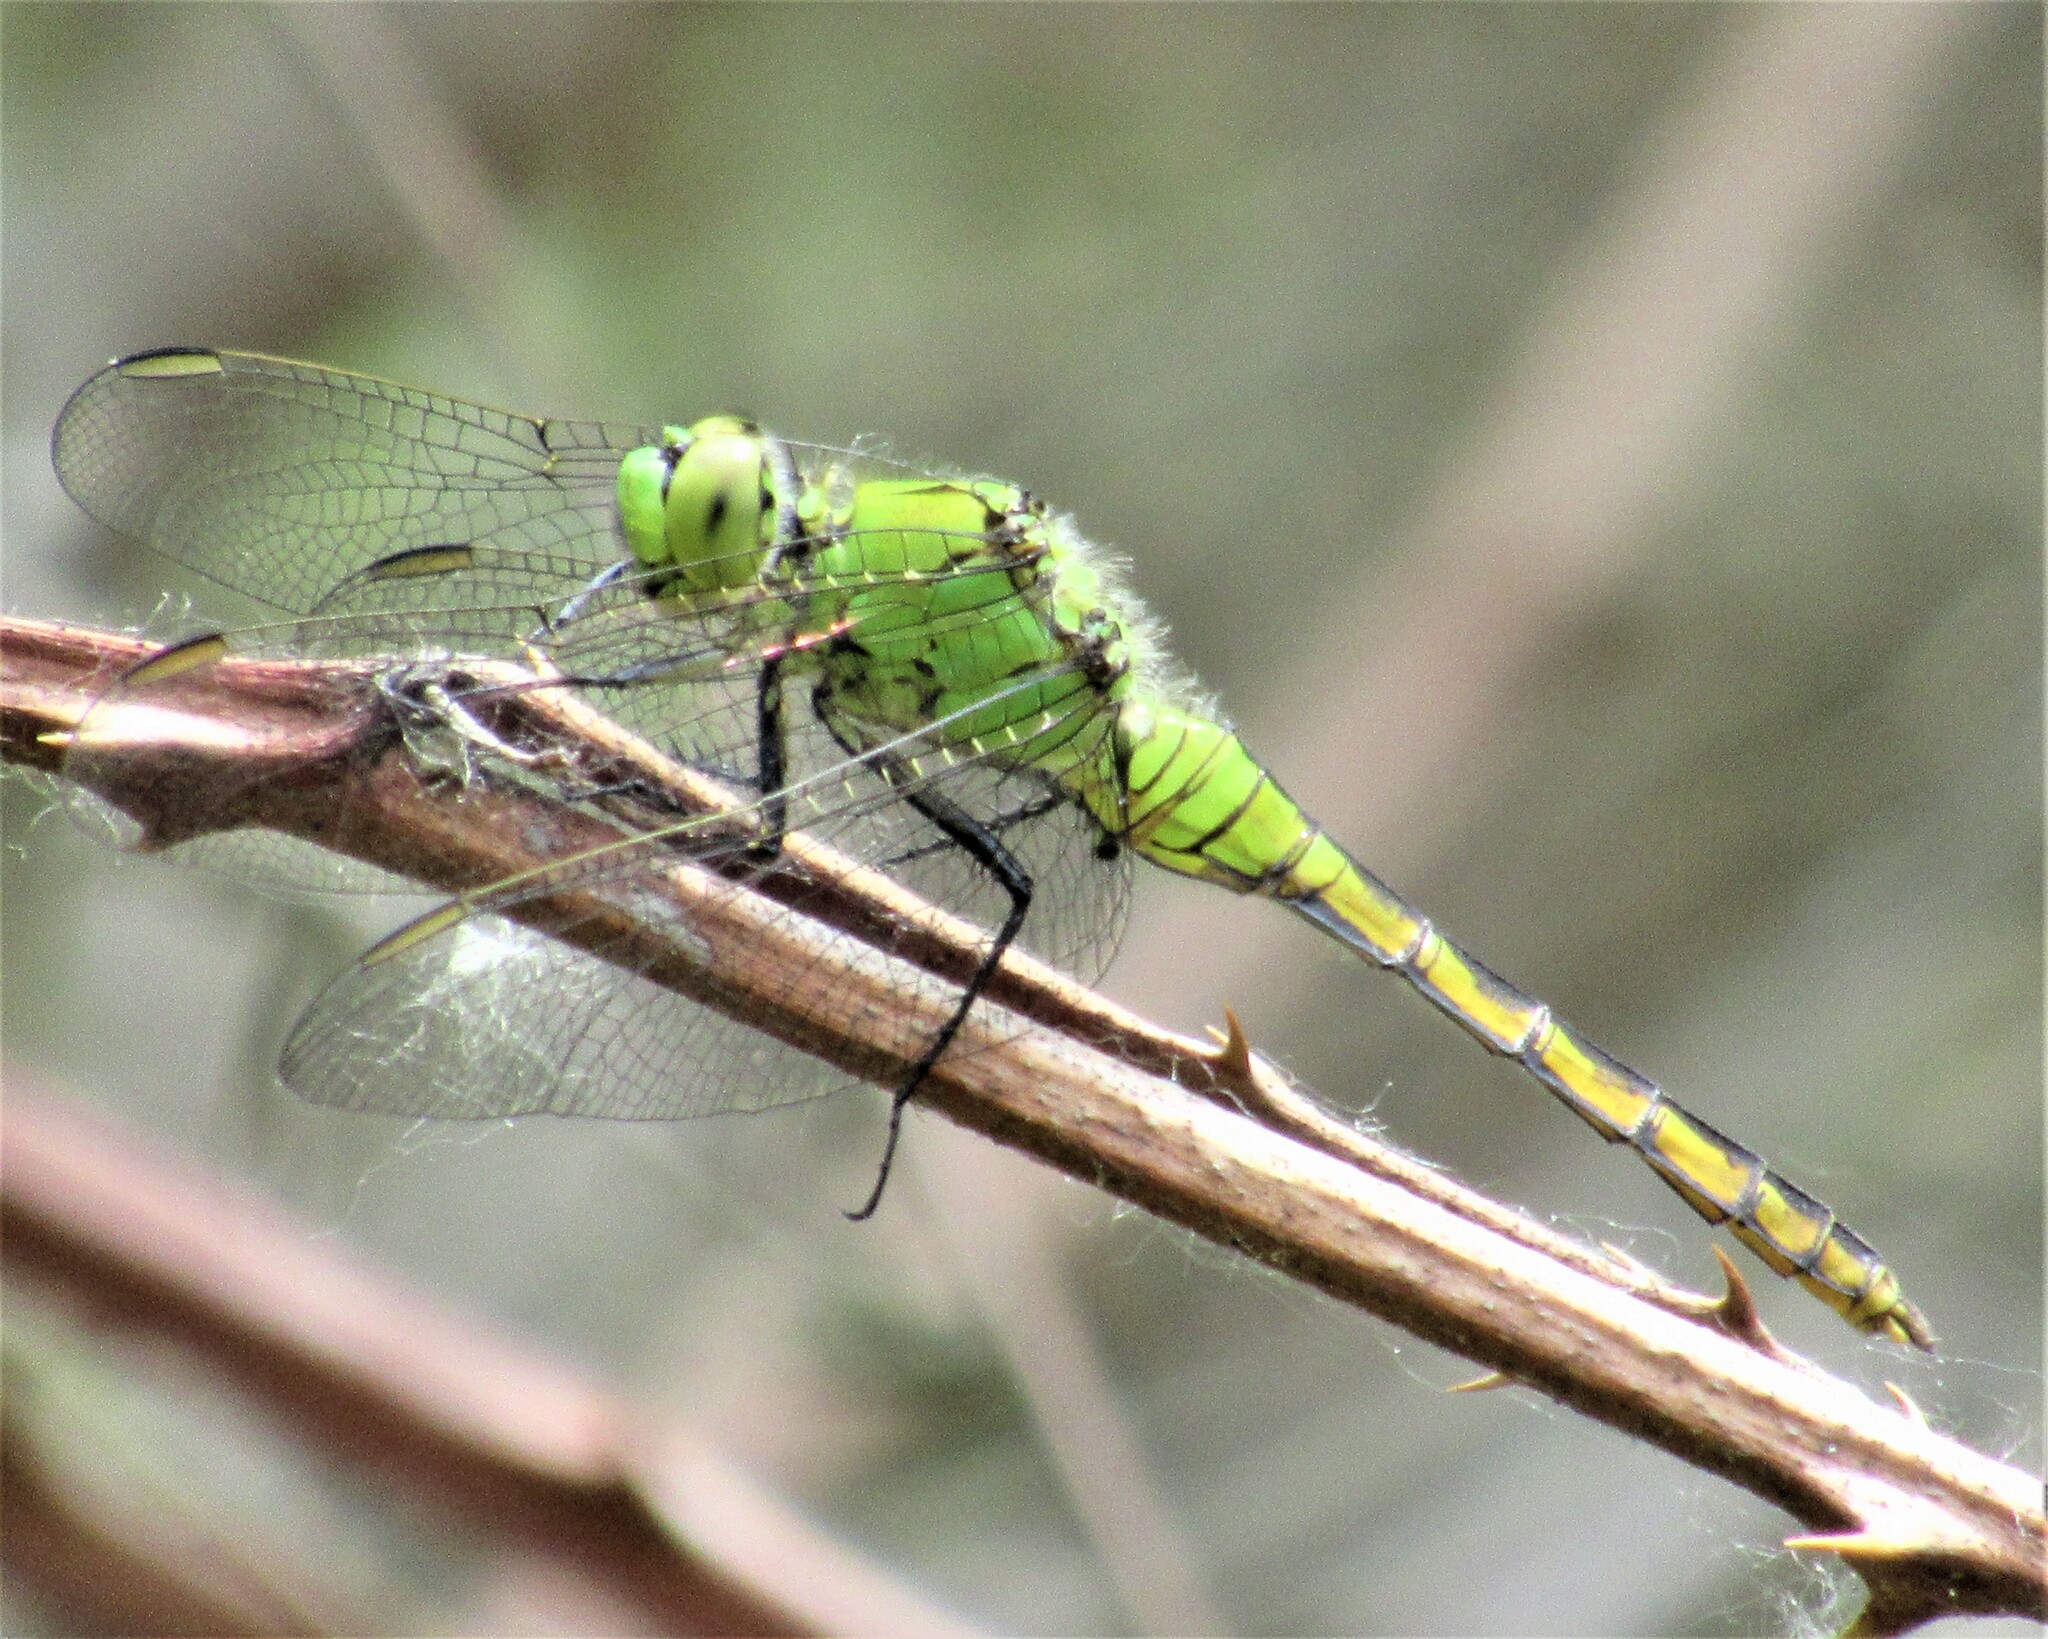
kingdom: Animalia
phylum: Arthropoda
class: Insecta
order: Odonata
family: Libellulidae
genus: Erythemis
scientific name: Erythemis collocata
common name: Western pondhawk
